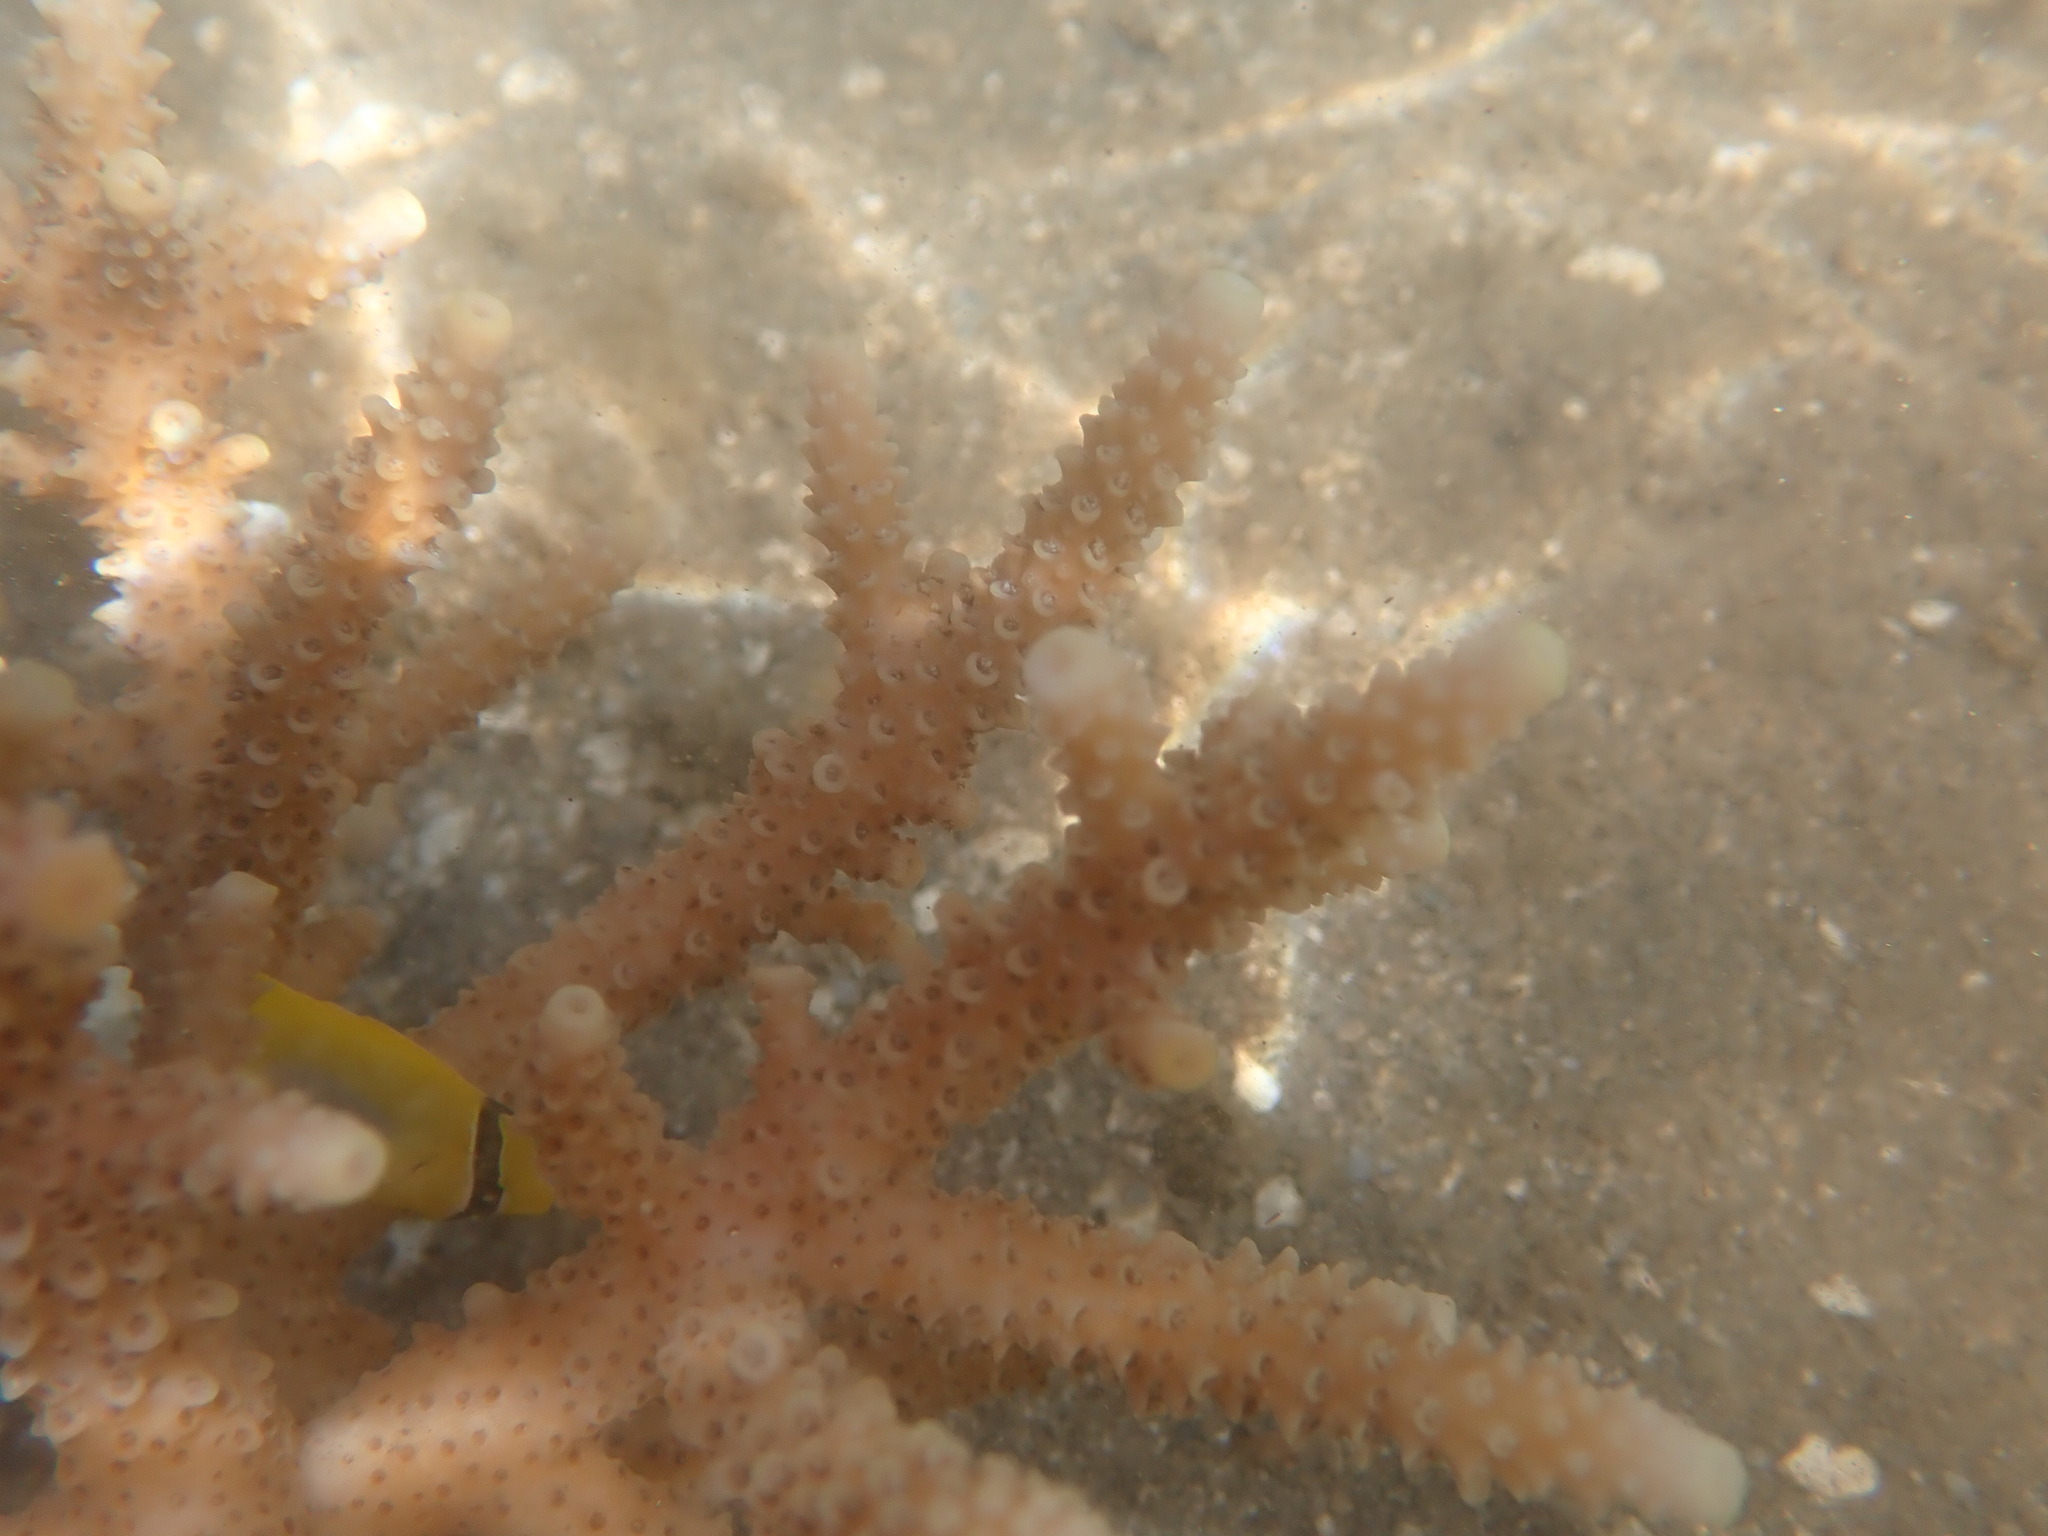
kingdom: Animalia
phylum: Chordata
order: Perciformes
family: Chaetodontidae
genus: Chaetodon
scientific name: Chaetodon plebeius
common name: Bluespot butterflyfish
